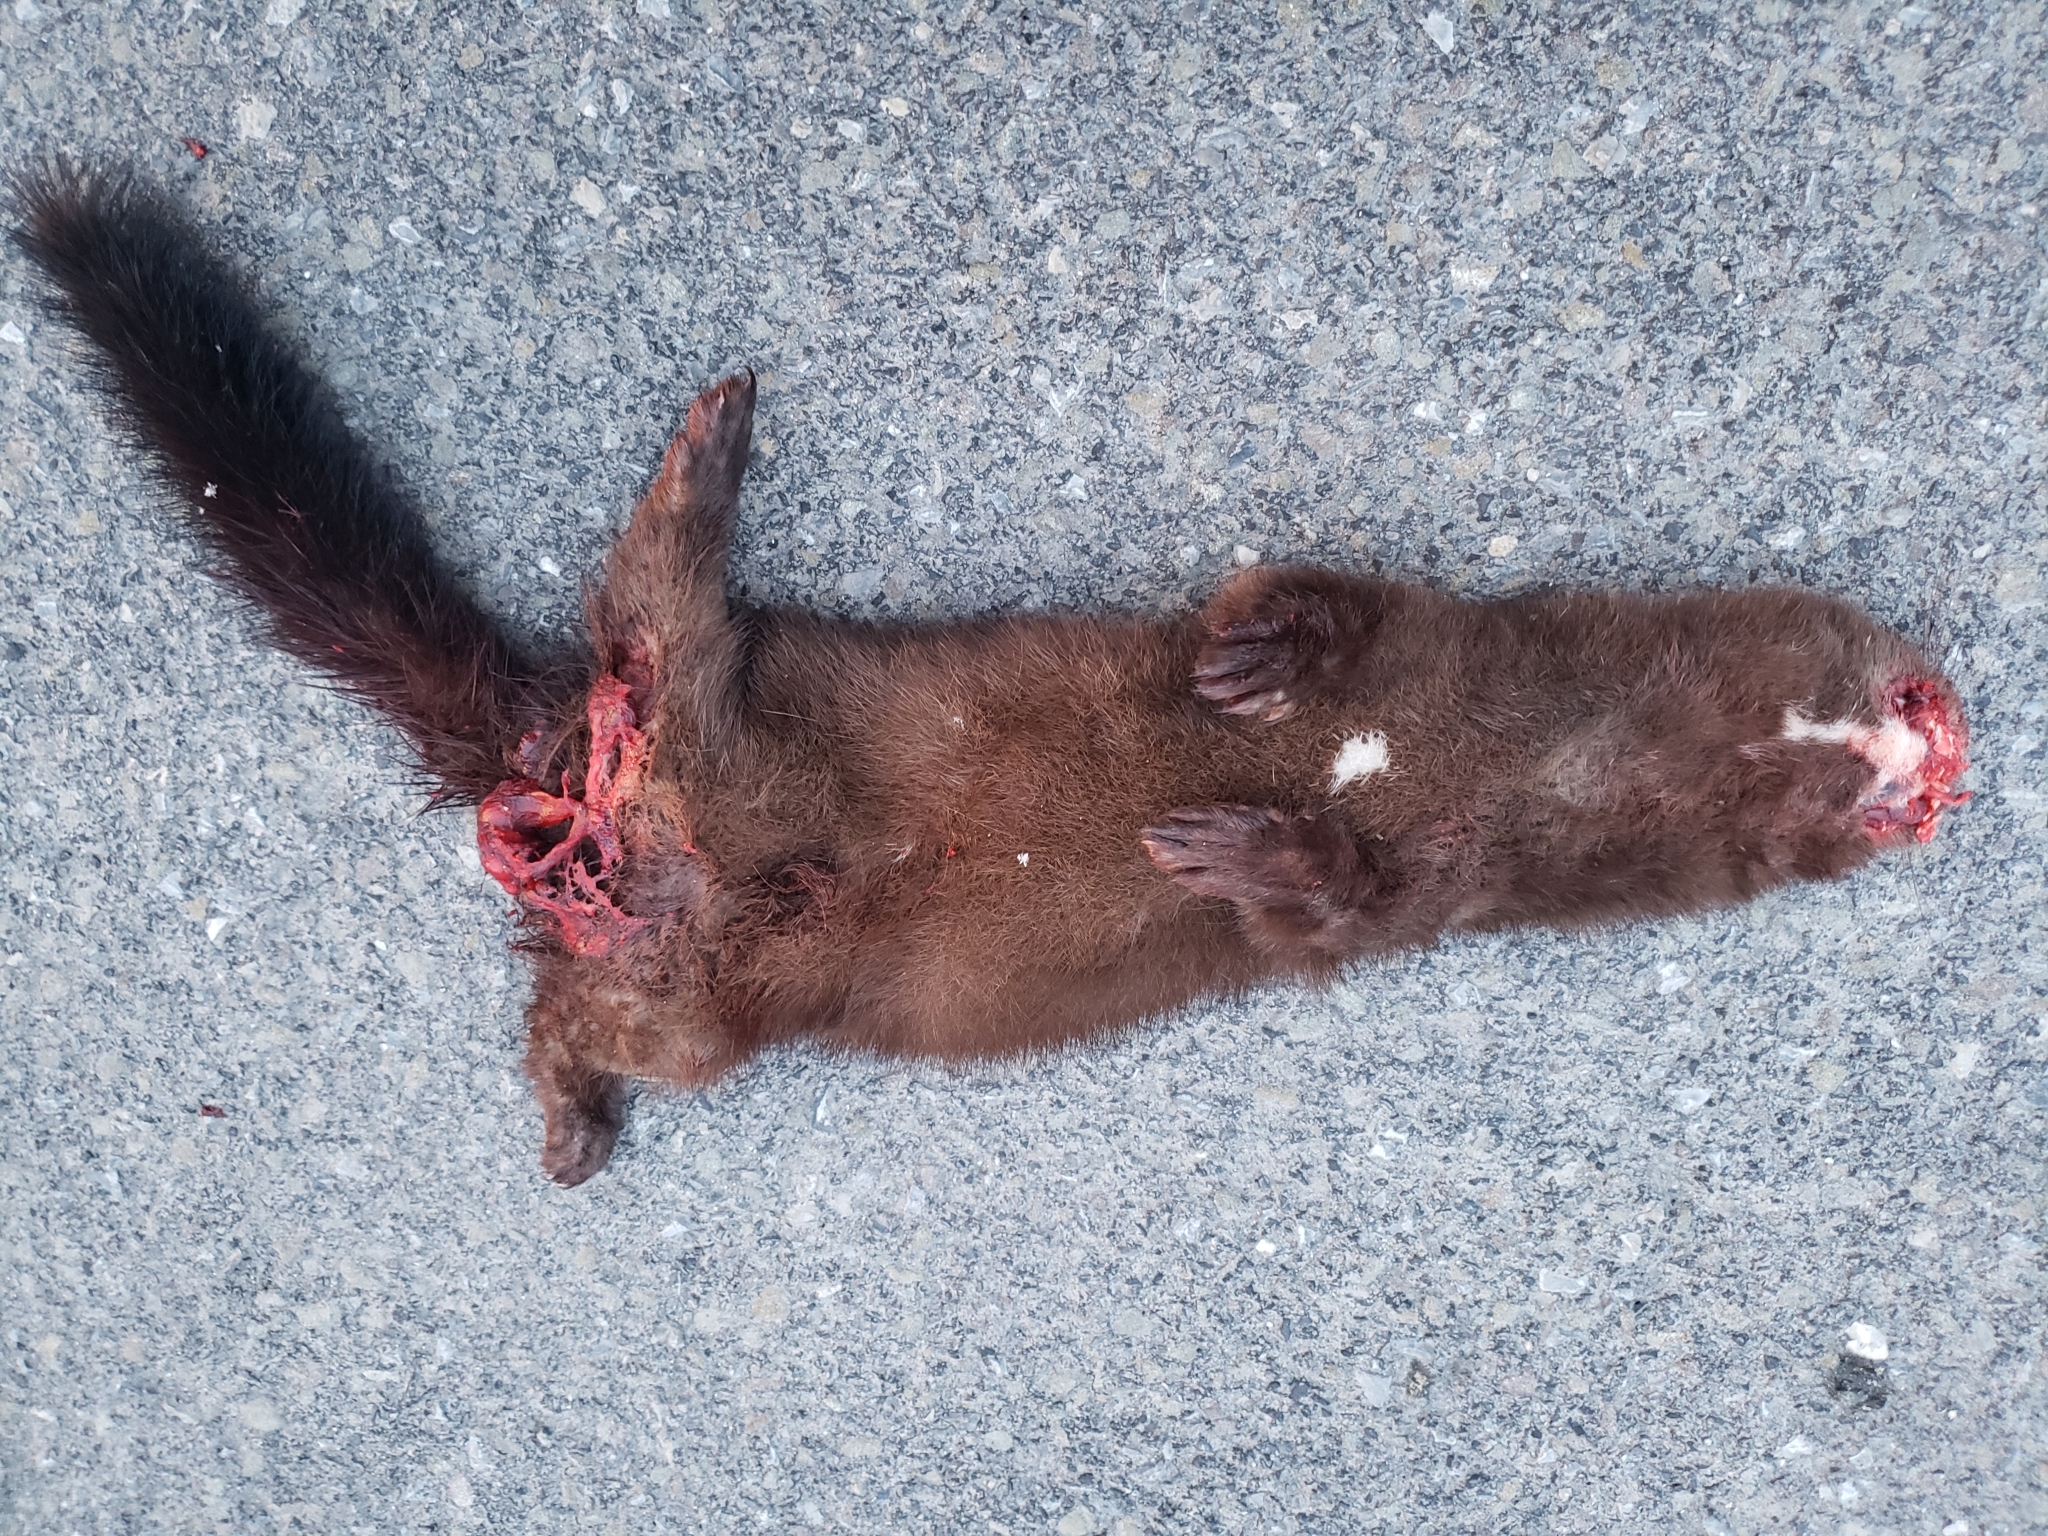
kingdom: Animalia
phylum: Chordata
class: Mammalia
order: Carnivora
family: Mustelidae
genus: Mustela
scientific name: Mustela
